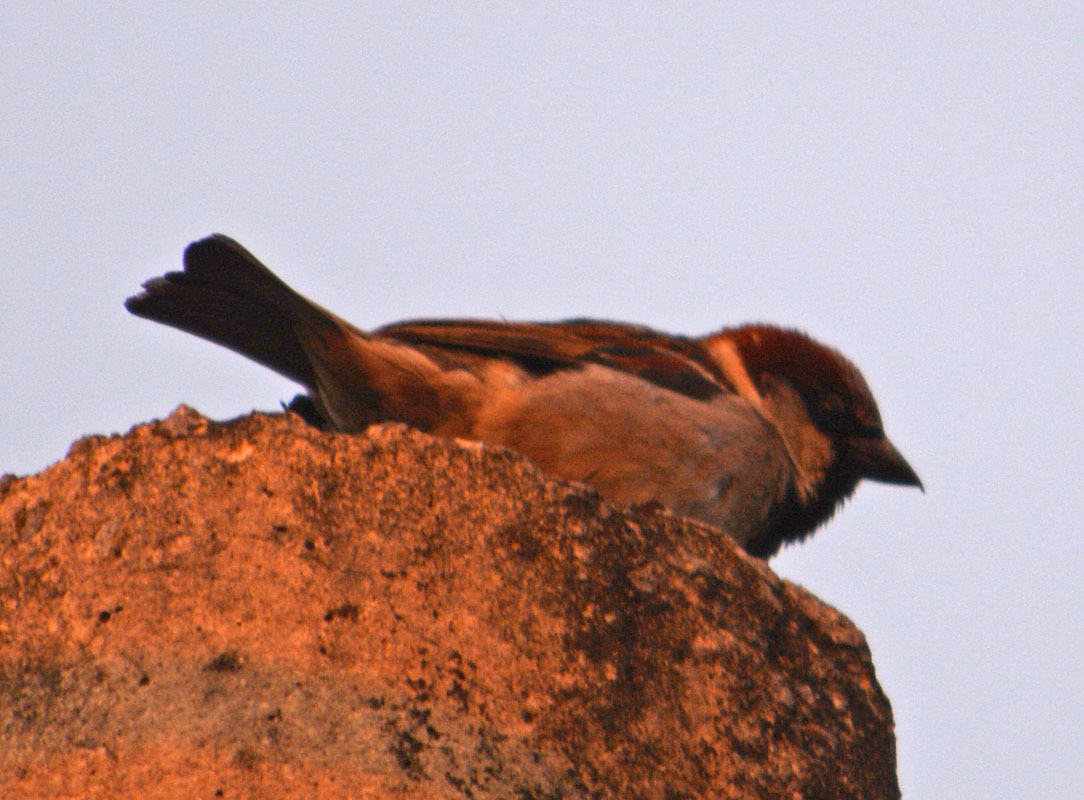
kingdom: Animalia
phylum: Chordata
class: Aves
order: Passeriformes
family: Passeridae
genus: Passer
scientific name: Passer domesticus
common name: House sparrow
